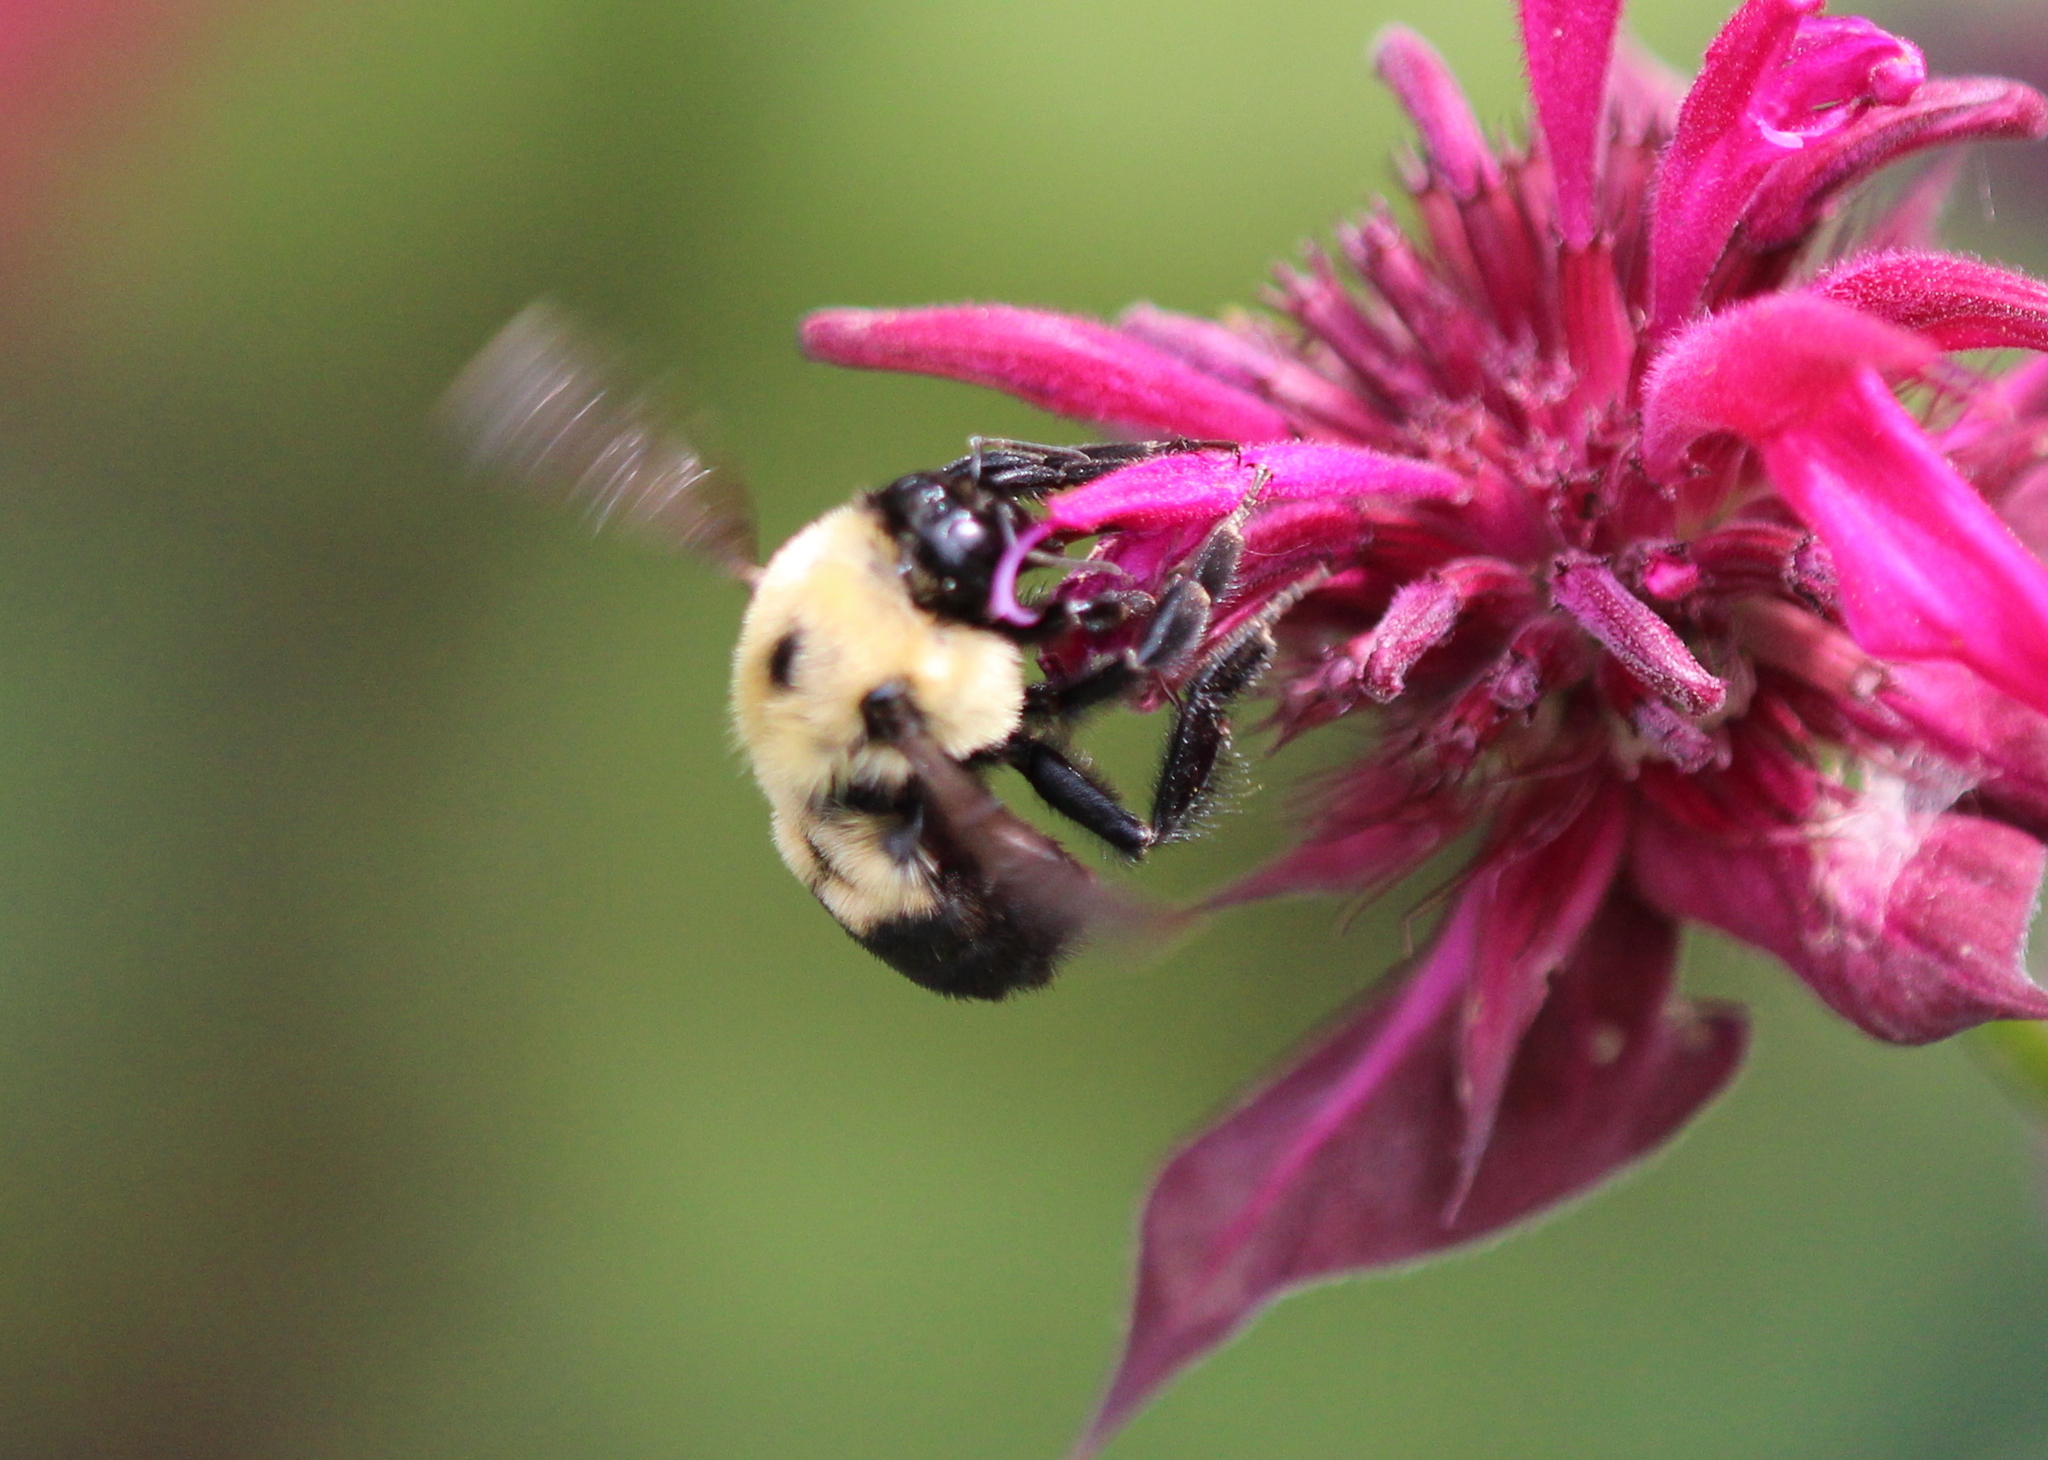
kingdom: Animalia
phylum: Arthropoda
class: Insecta
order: Hymenoptera
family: Apidae
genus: Bombus
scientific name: Bombus griseocollis
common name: Brown-belted bumble bee
